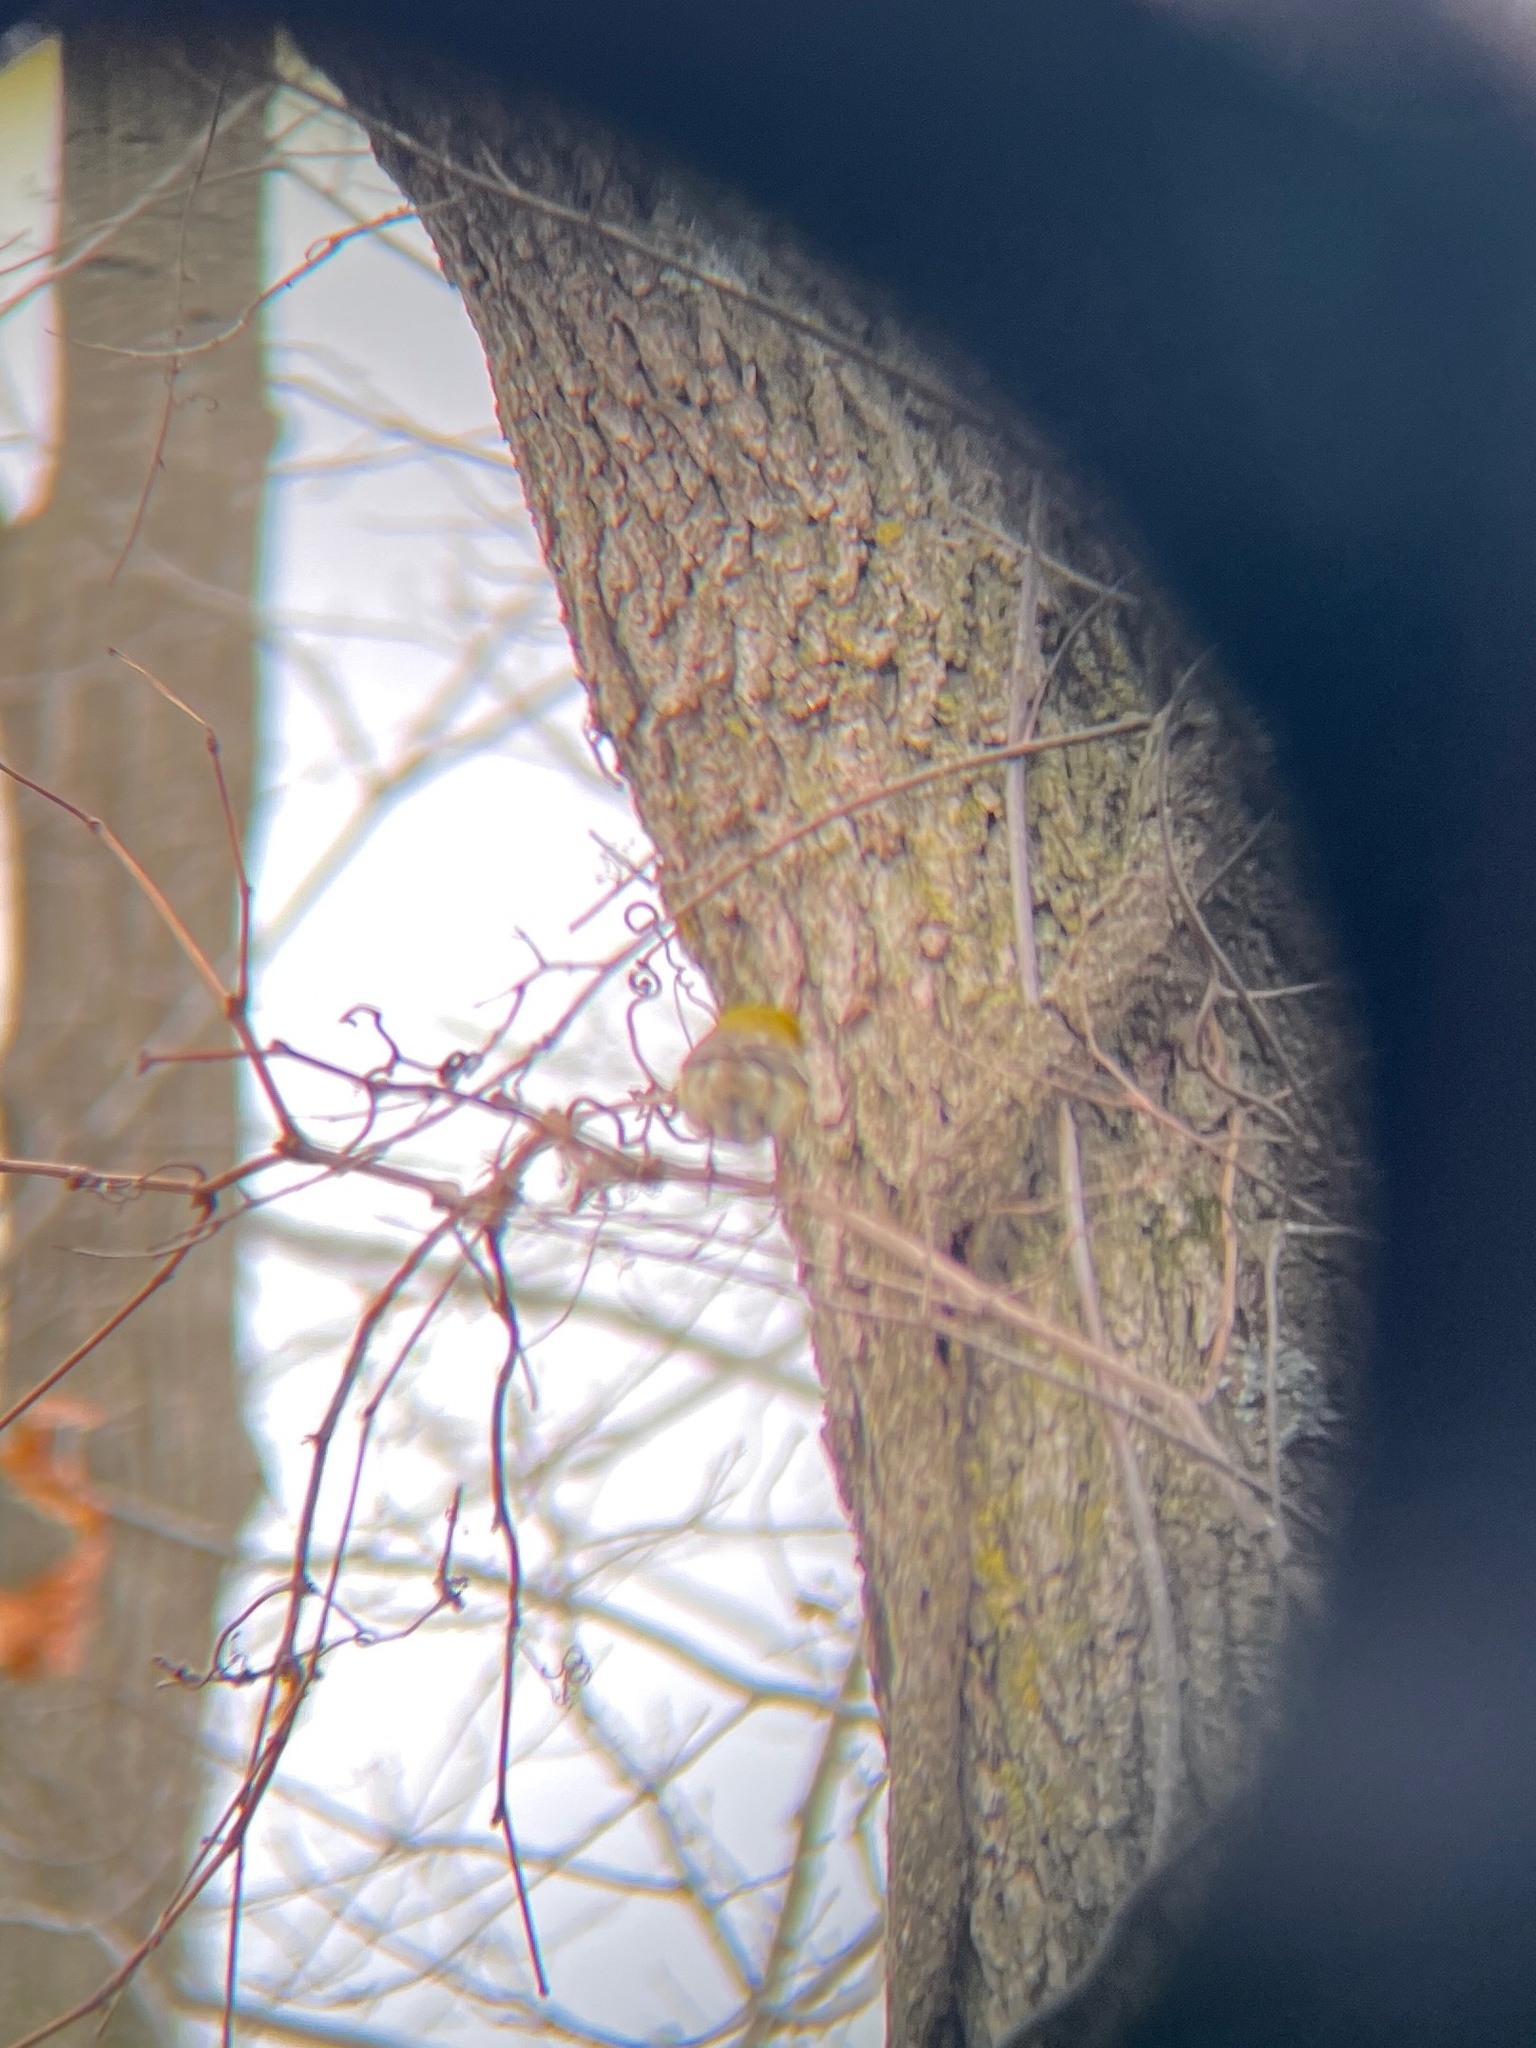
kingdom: Animalia
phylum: Chordata
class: Aves
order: Passeriformes
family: Parulidae
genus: Setophaga
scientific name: Setophaga pinus
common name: Pine warbler
